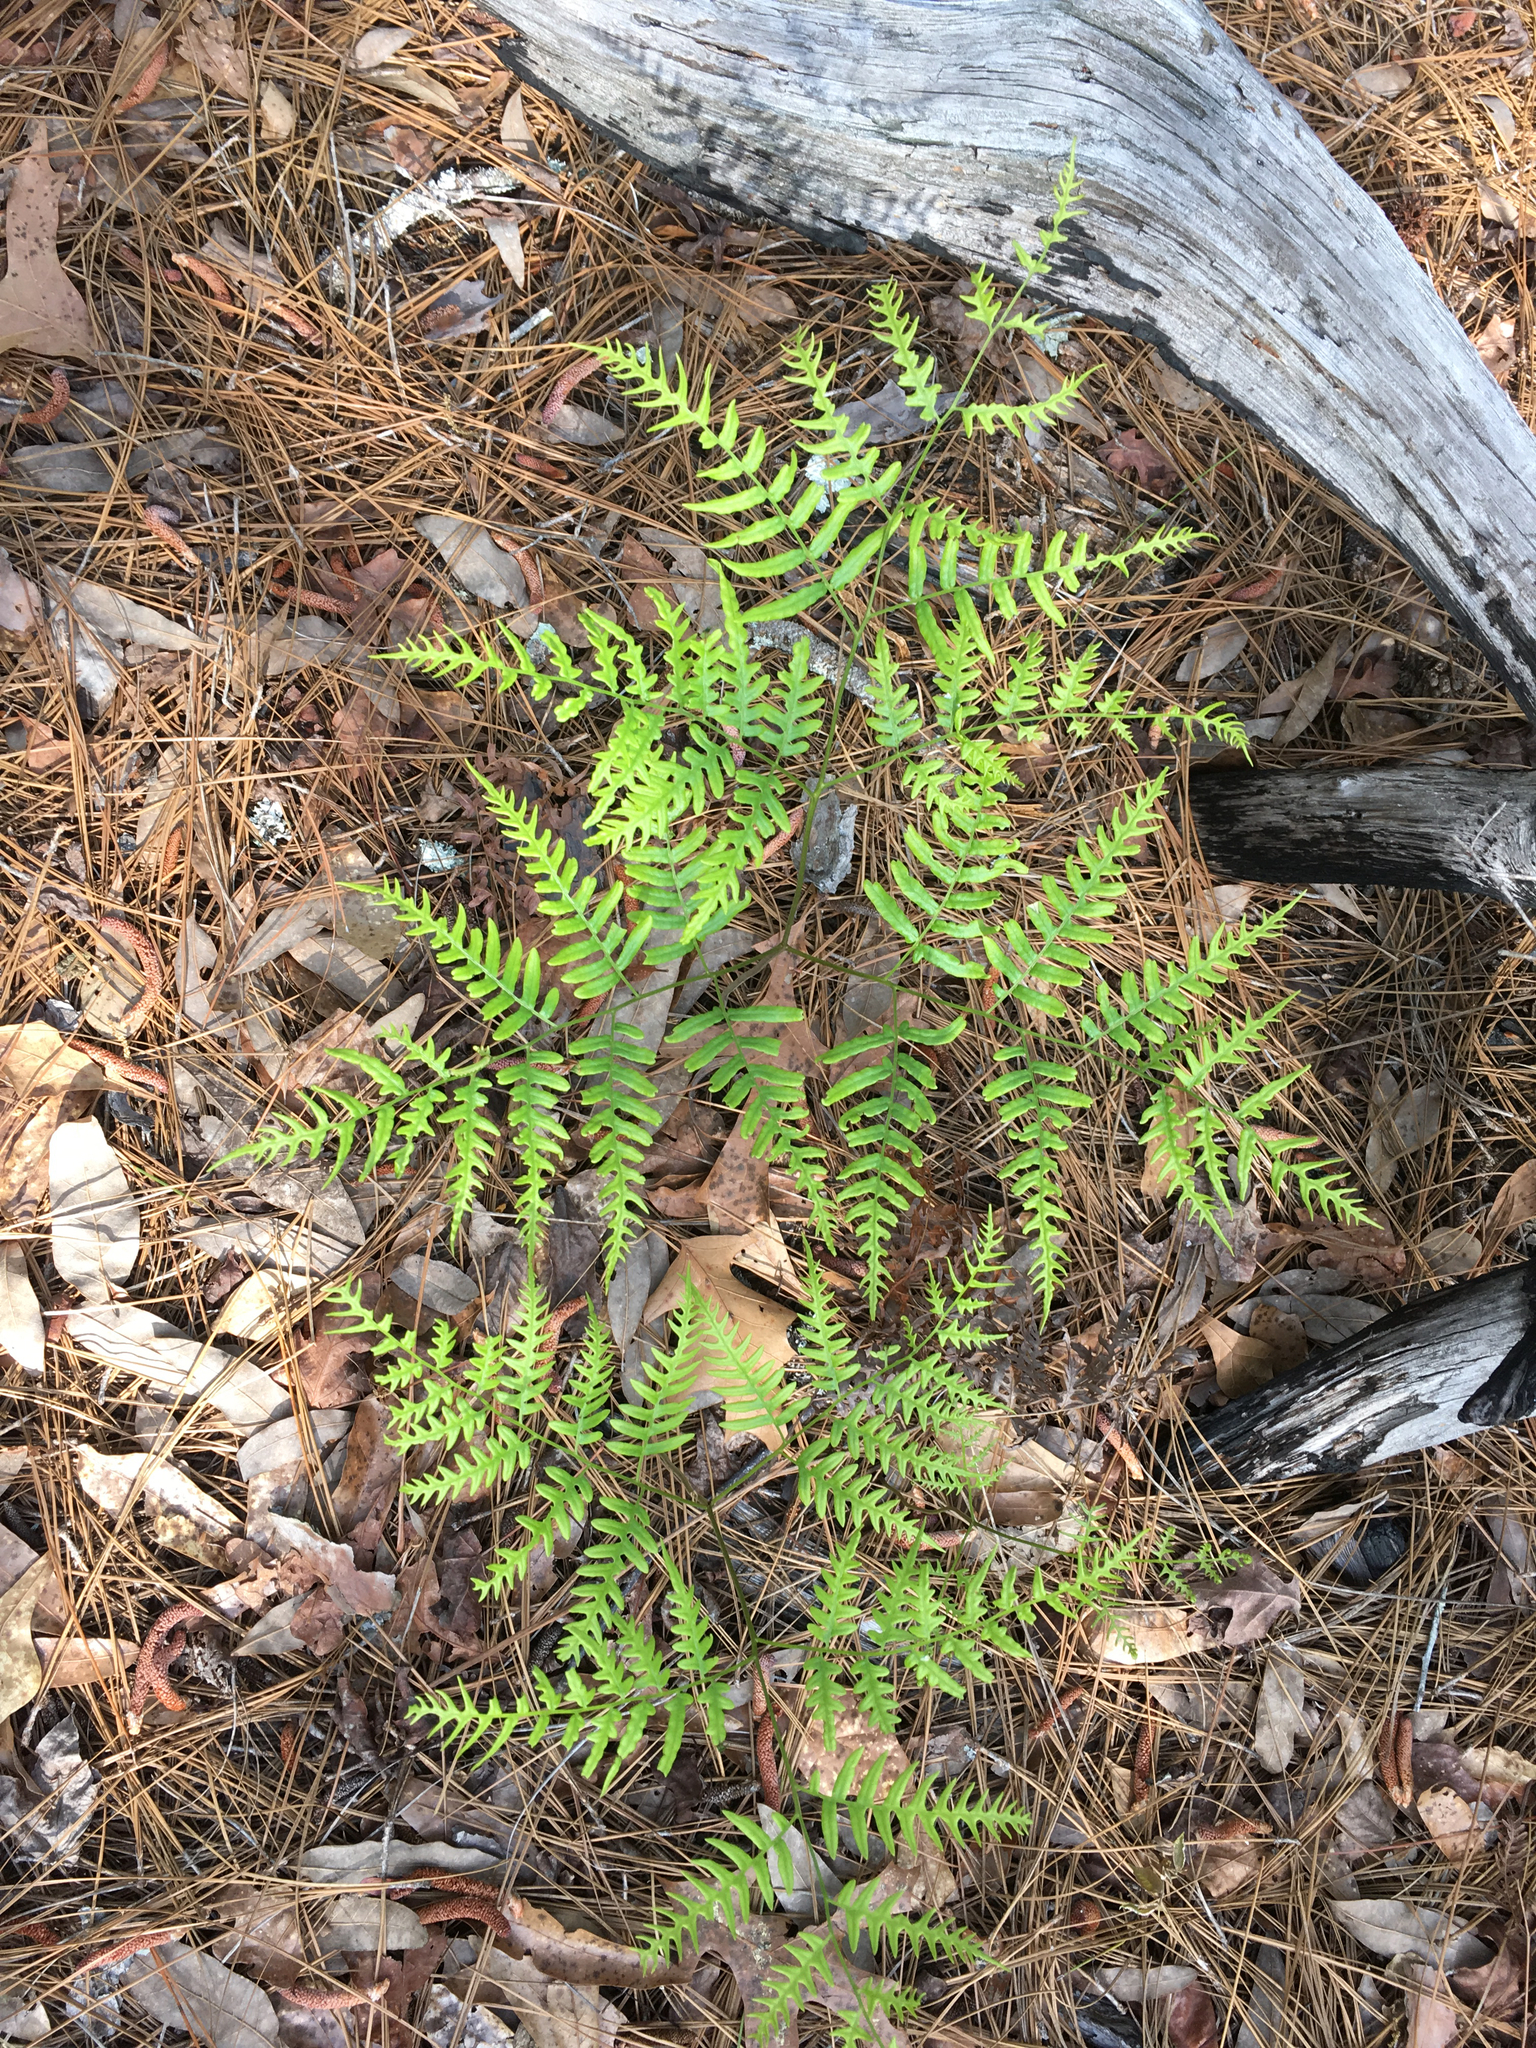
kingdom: Plantae
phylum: Tracheophyta
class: Polypodiopsida
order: Polypodiales
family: Dennstaedtiaceae
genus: Pteridium
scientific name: Pteridium
